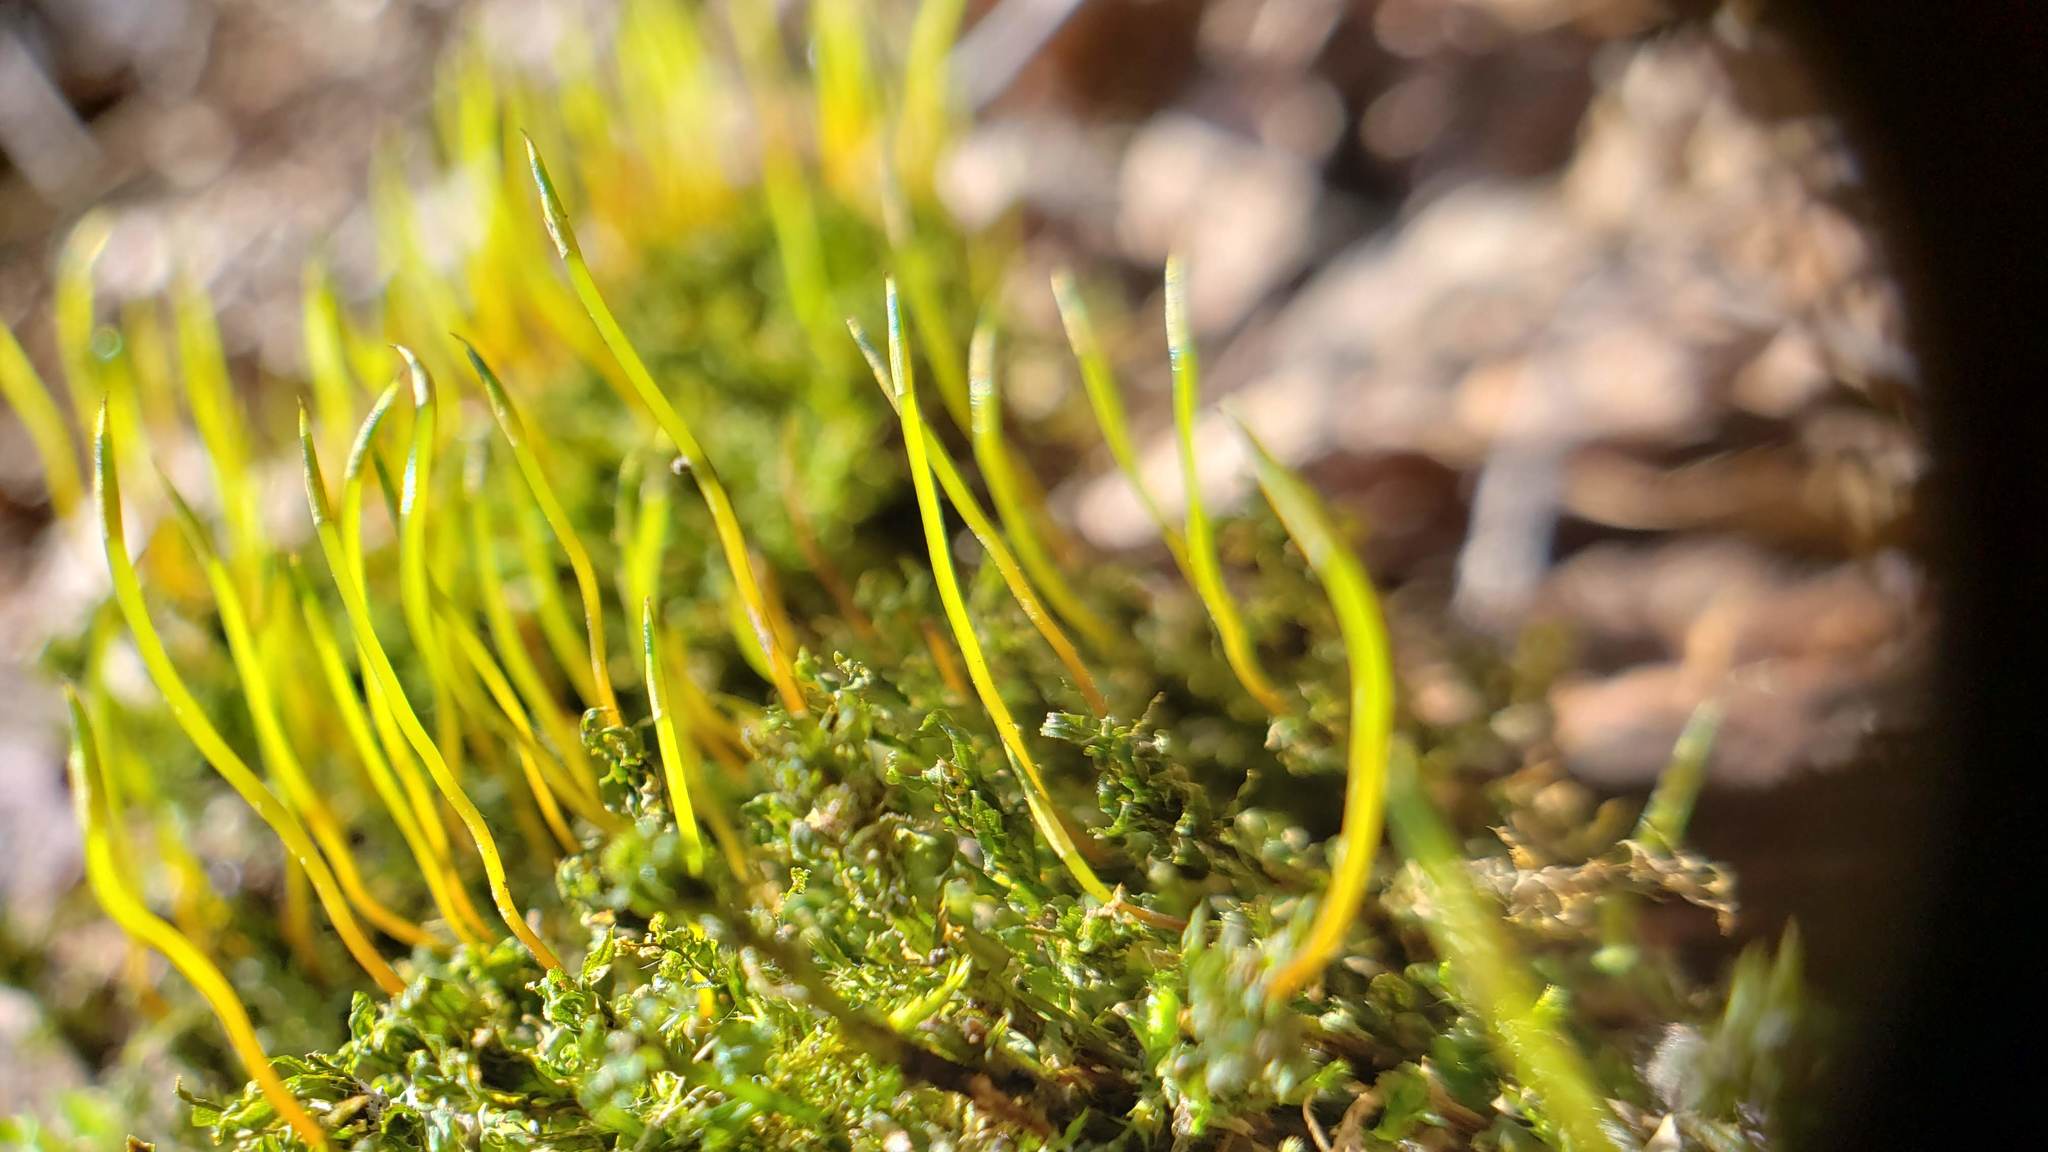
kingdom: Plantae
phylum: Bryophyta
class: Bryopsida
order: Bryales
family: Mniaceae
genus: Plagiomnium
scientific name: Plagiomnium cuspidatum
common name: Woodsy leafy moss
